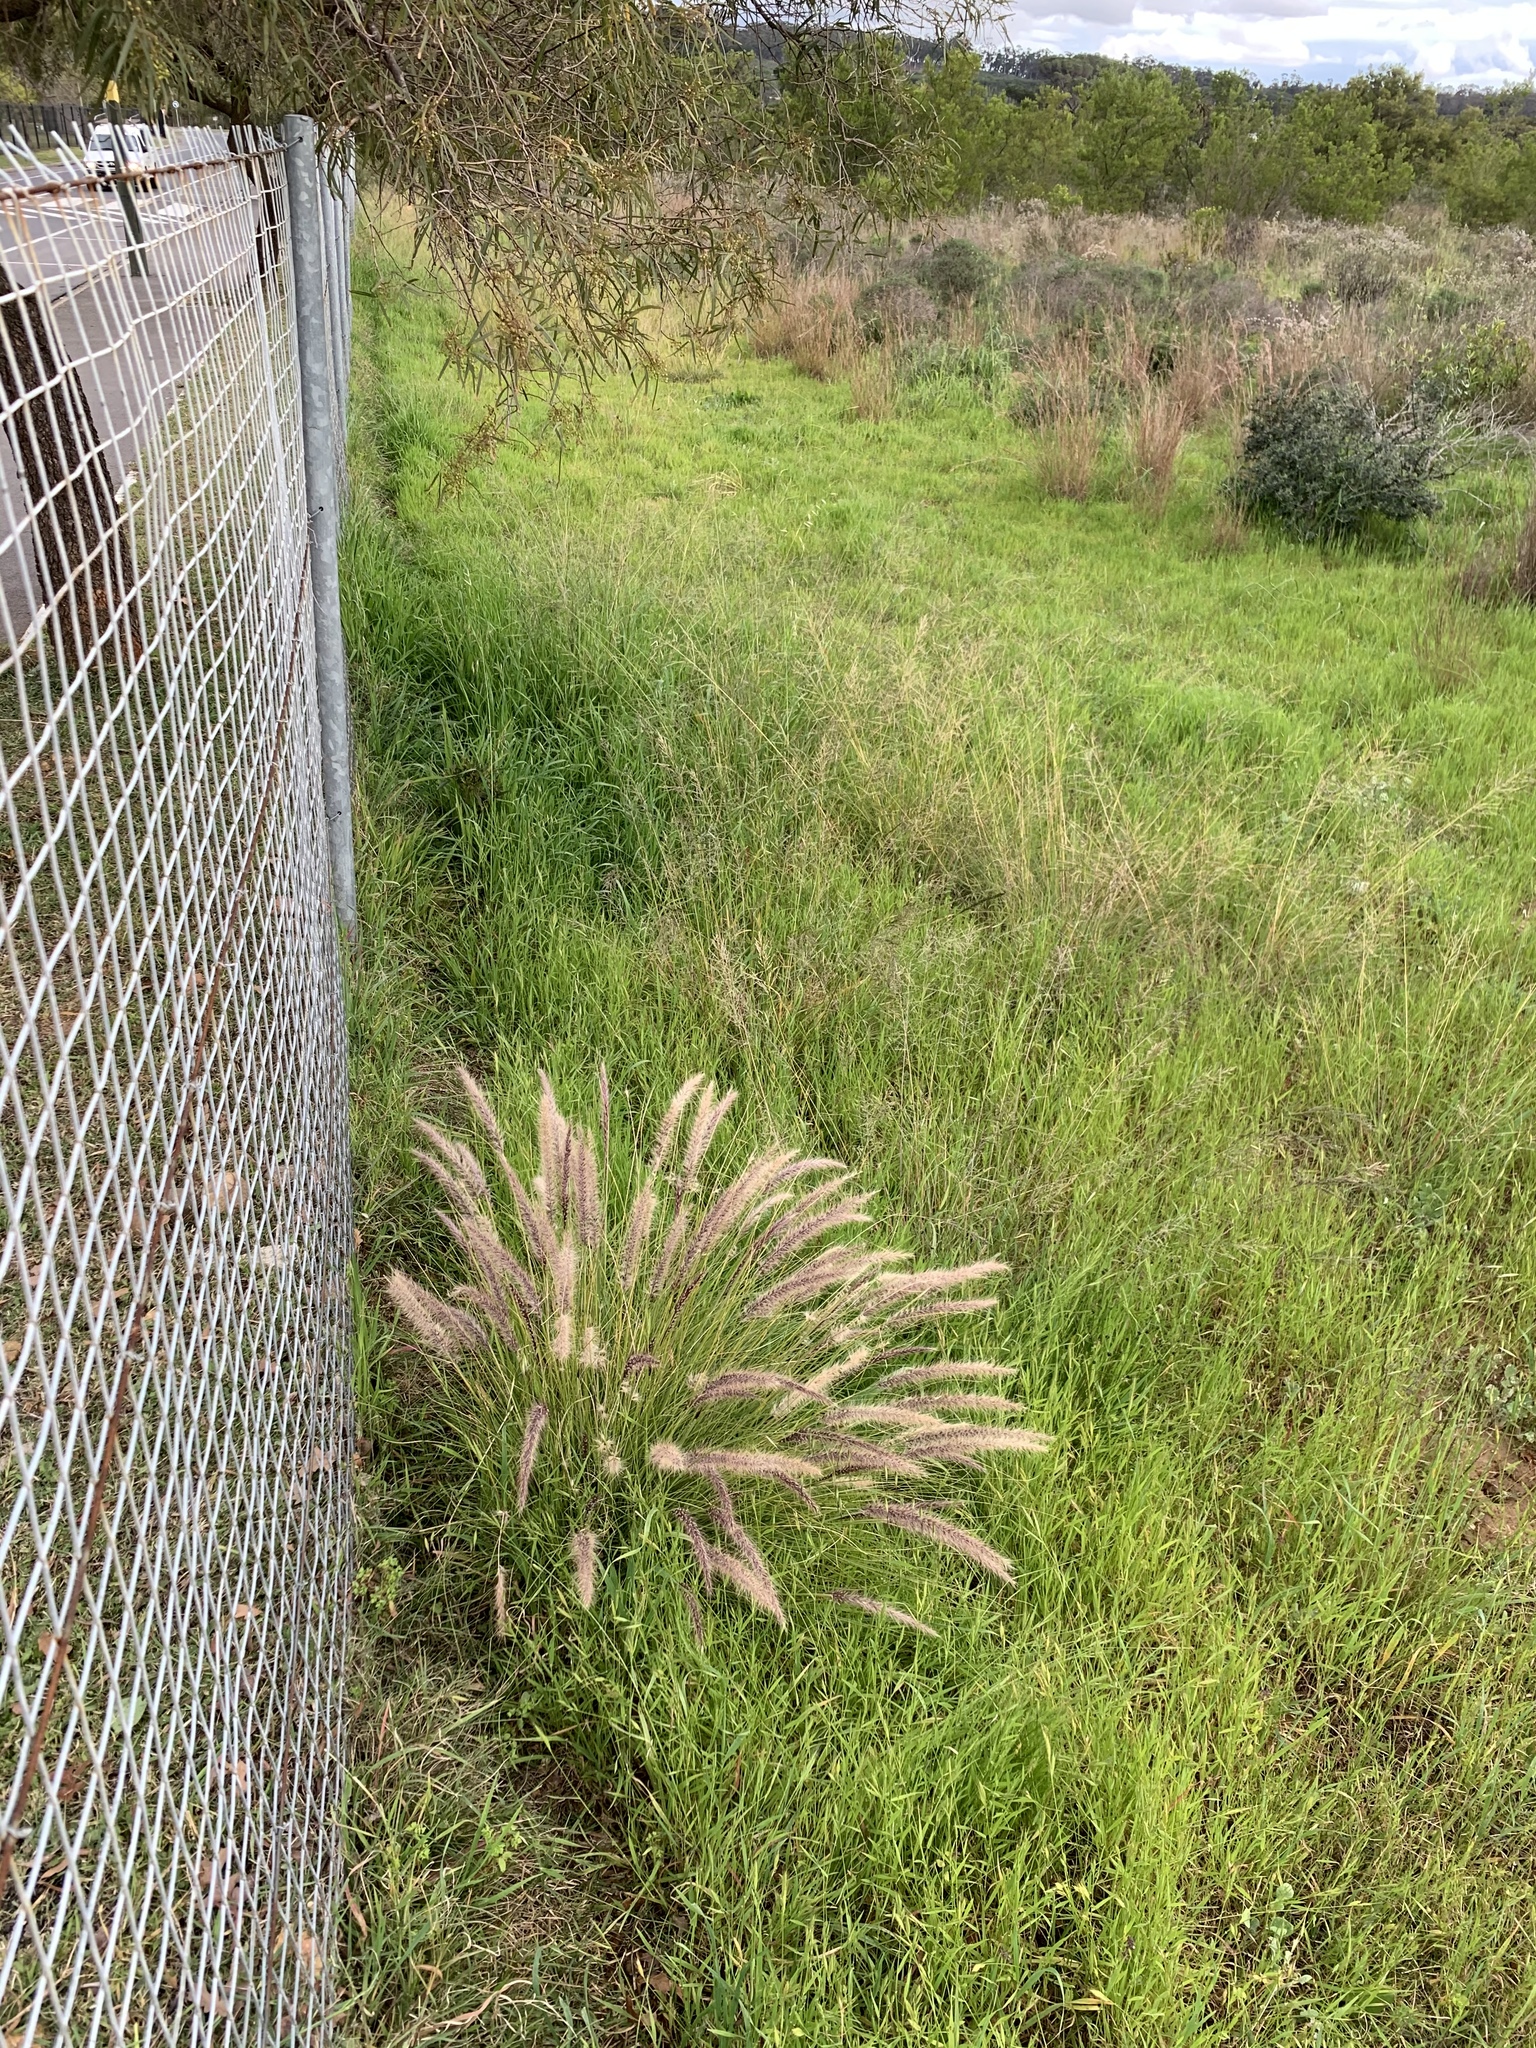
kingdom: Plantae
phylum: Tracheophyta
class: Liliopsida
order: Poales
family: Poaceae
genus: Cenchrus
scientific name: Cenchrus setaceus
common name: Crimson fountaingrass
